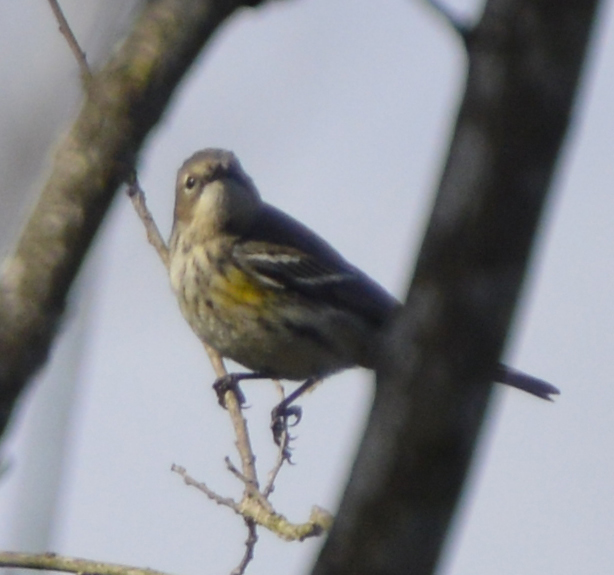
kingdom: Animalia
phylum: Chordata
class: Aves
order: Passeriformes
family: Parulidae
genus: Setophaga
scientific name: Setophaga coronata
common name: Myrtle warbler
